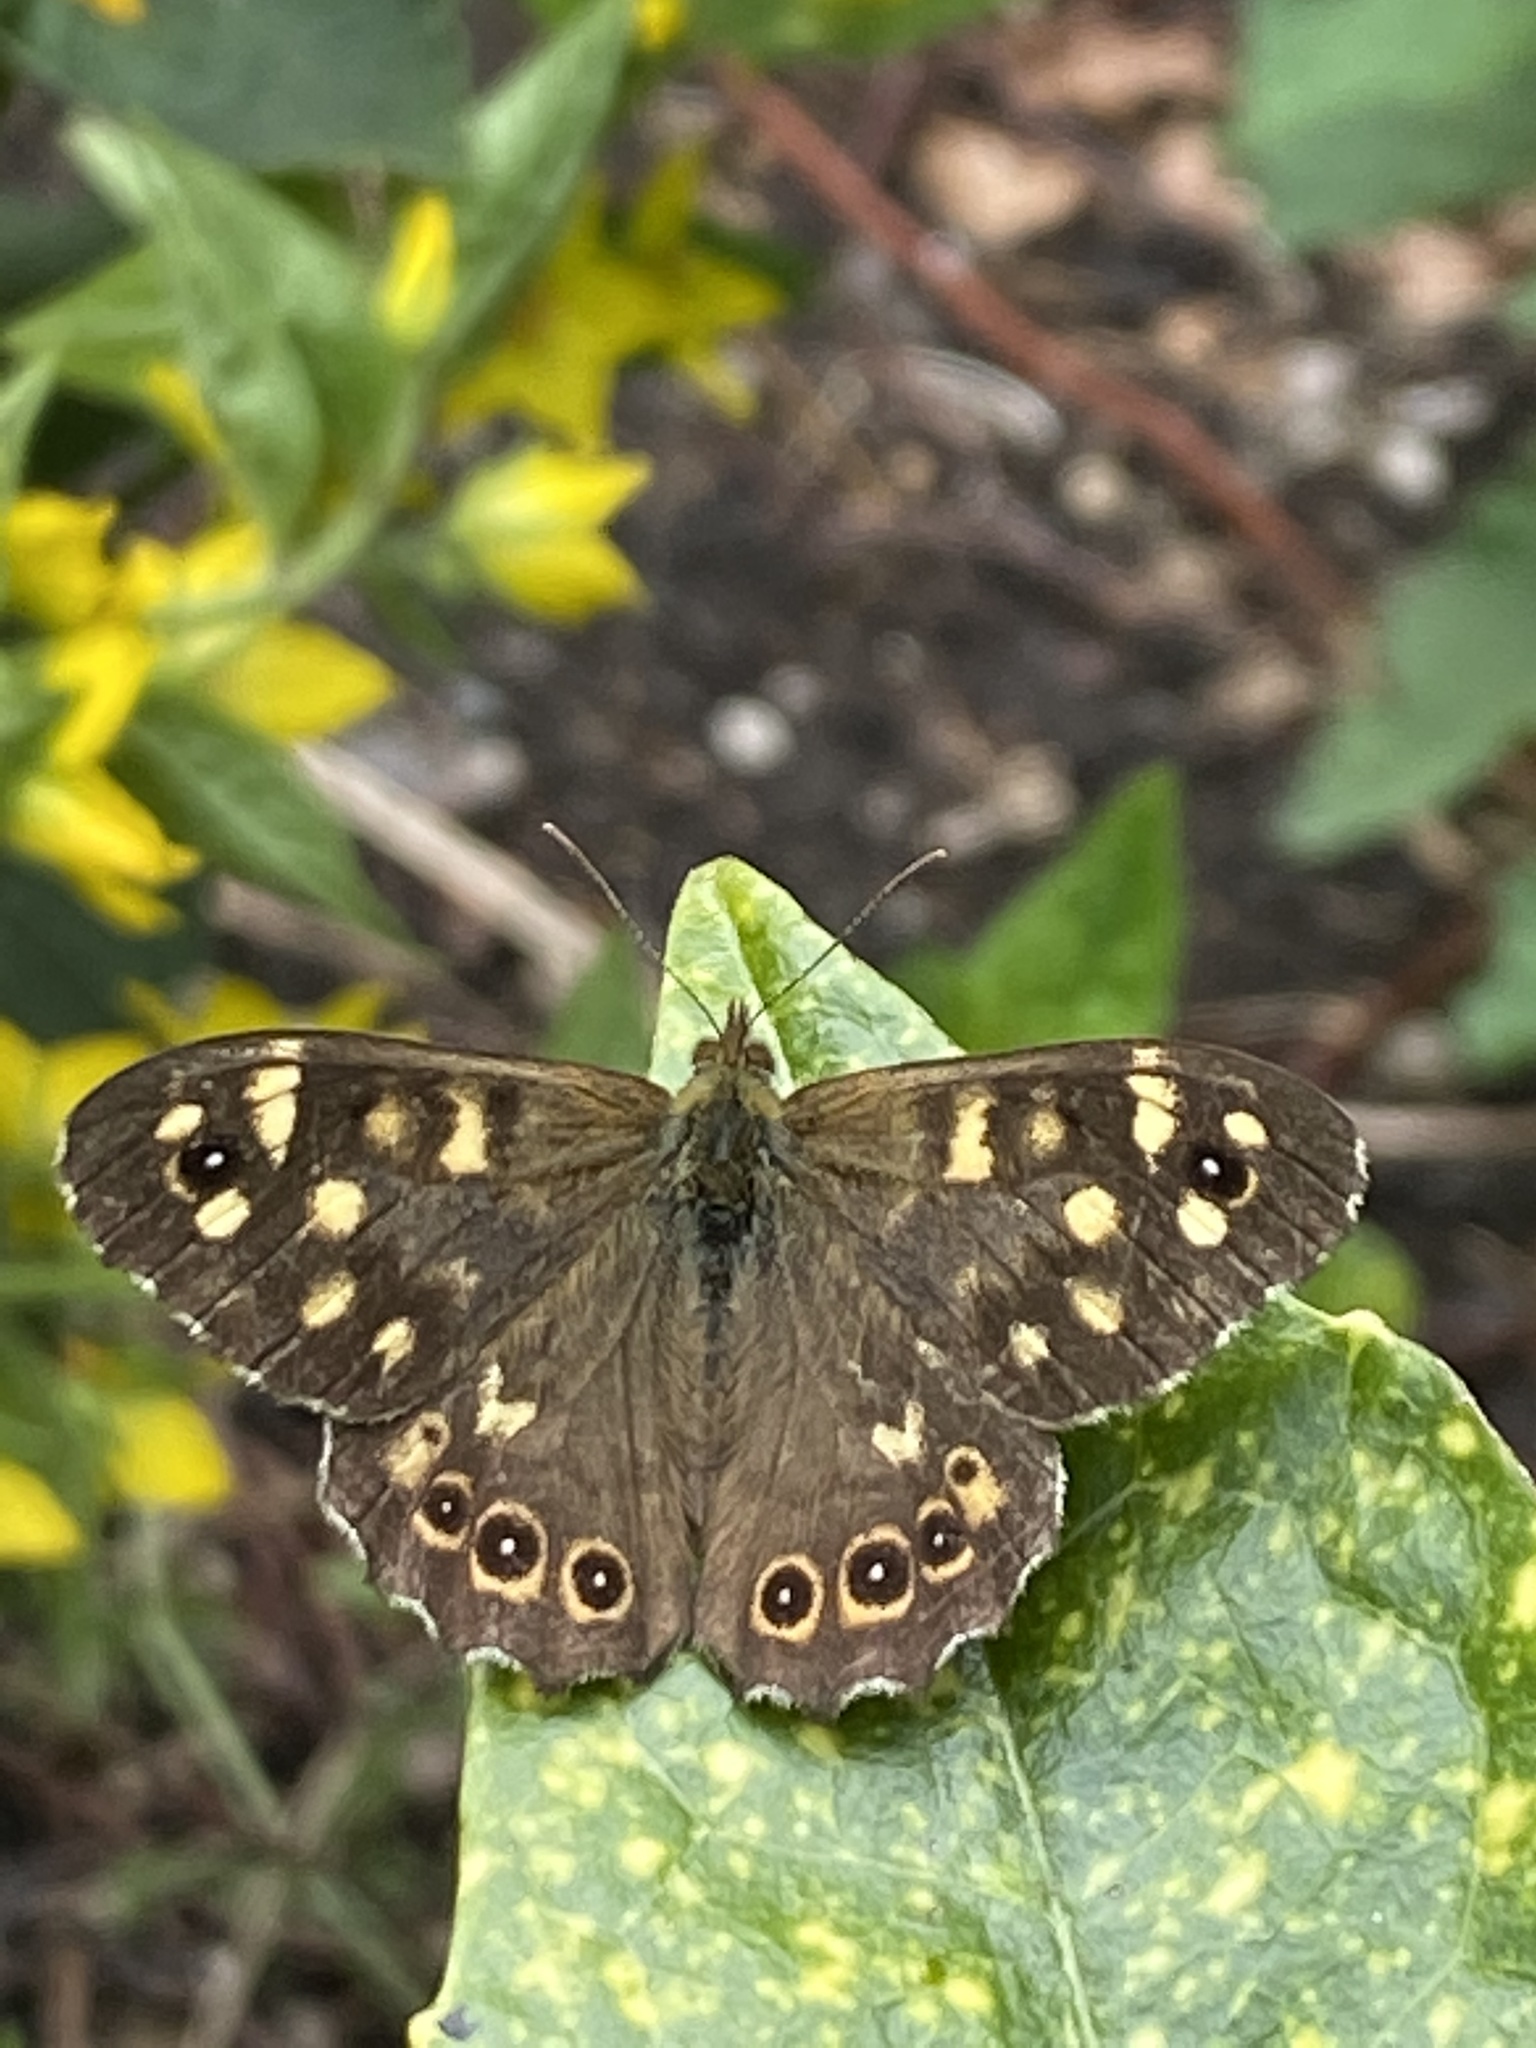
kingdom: Animalia
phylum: Arthropoda
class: Insecta
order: Lepidoptera
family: Nymphalidae
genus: Pararge
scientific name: Pararge aegeria
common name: Speckled wood
